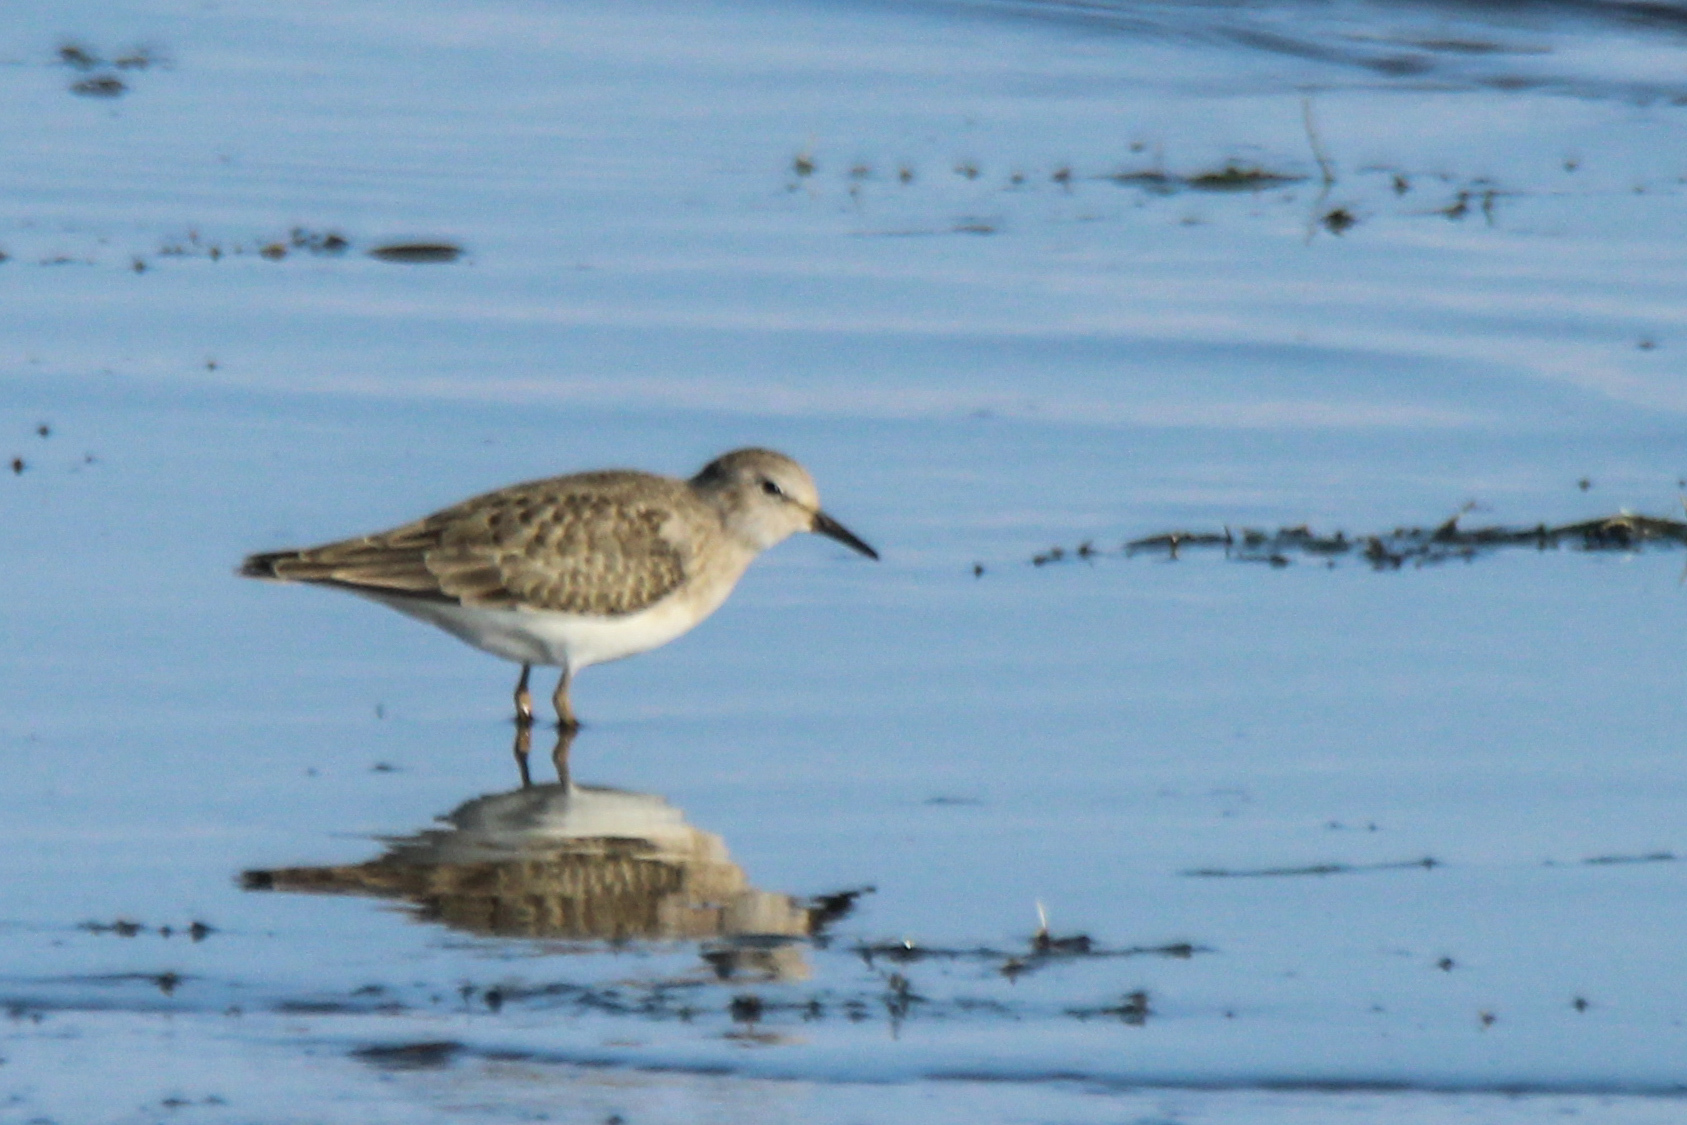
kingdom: Animalia
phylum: Chordata
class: Aves
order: Charadriiformes
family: Scolopacidae
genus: Calidris
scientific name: Calidris temminckii
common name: Temminck's stint
